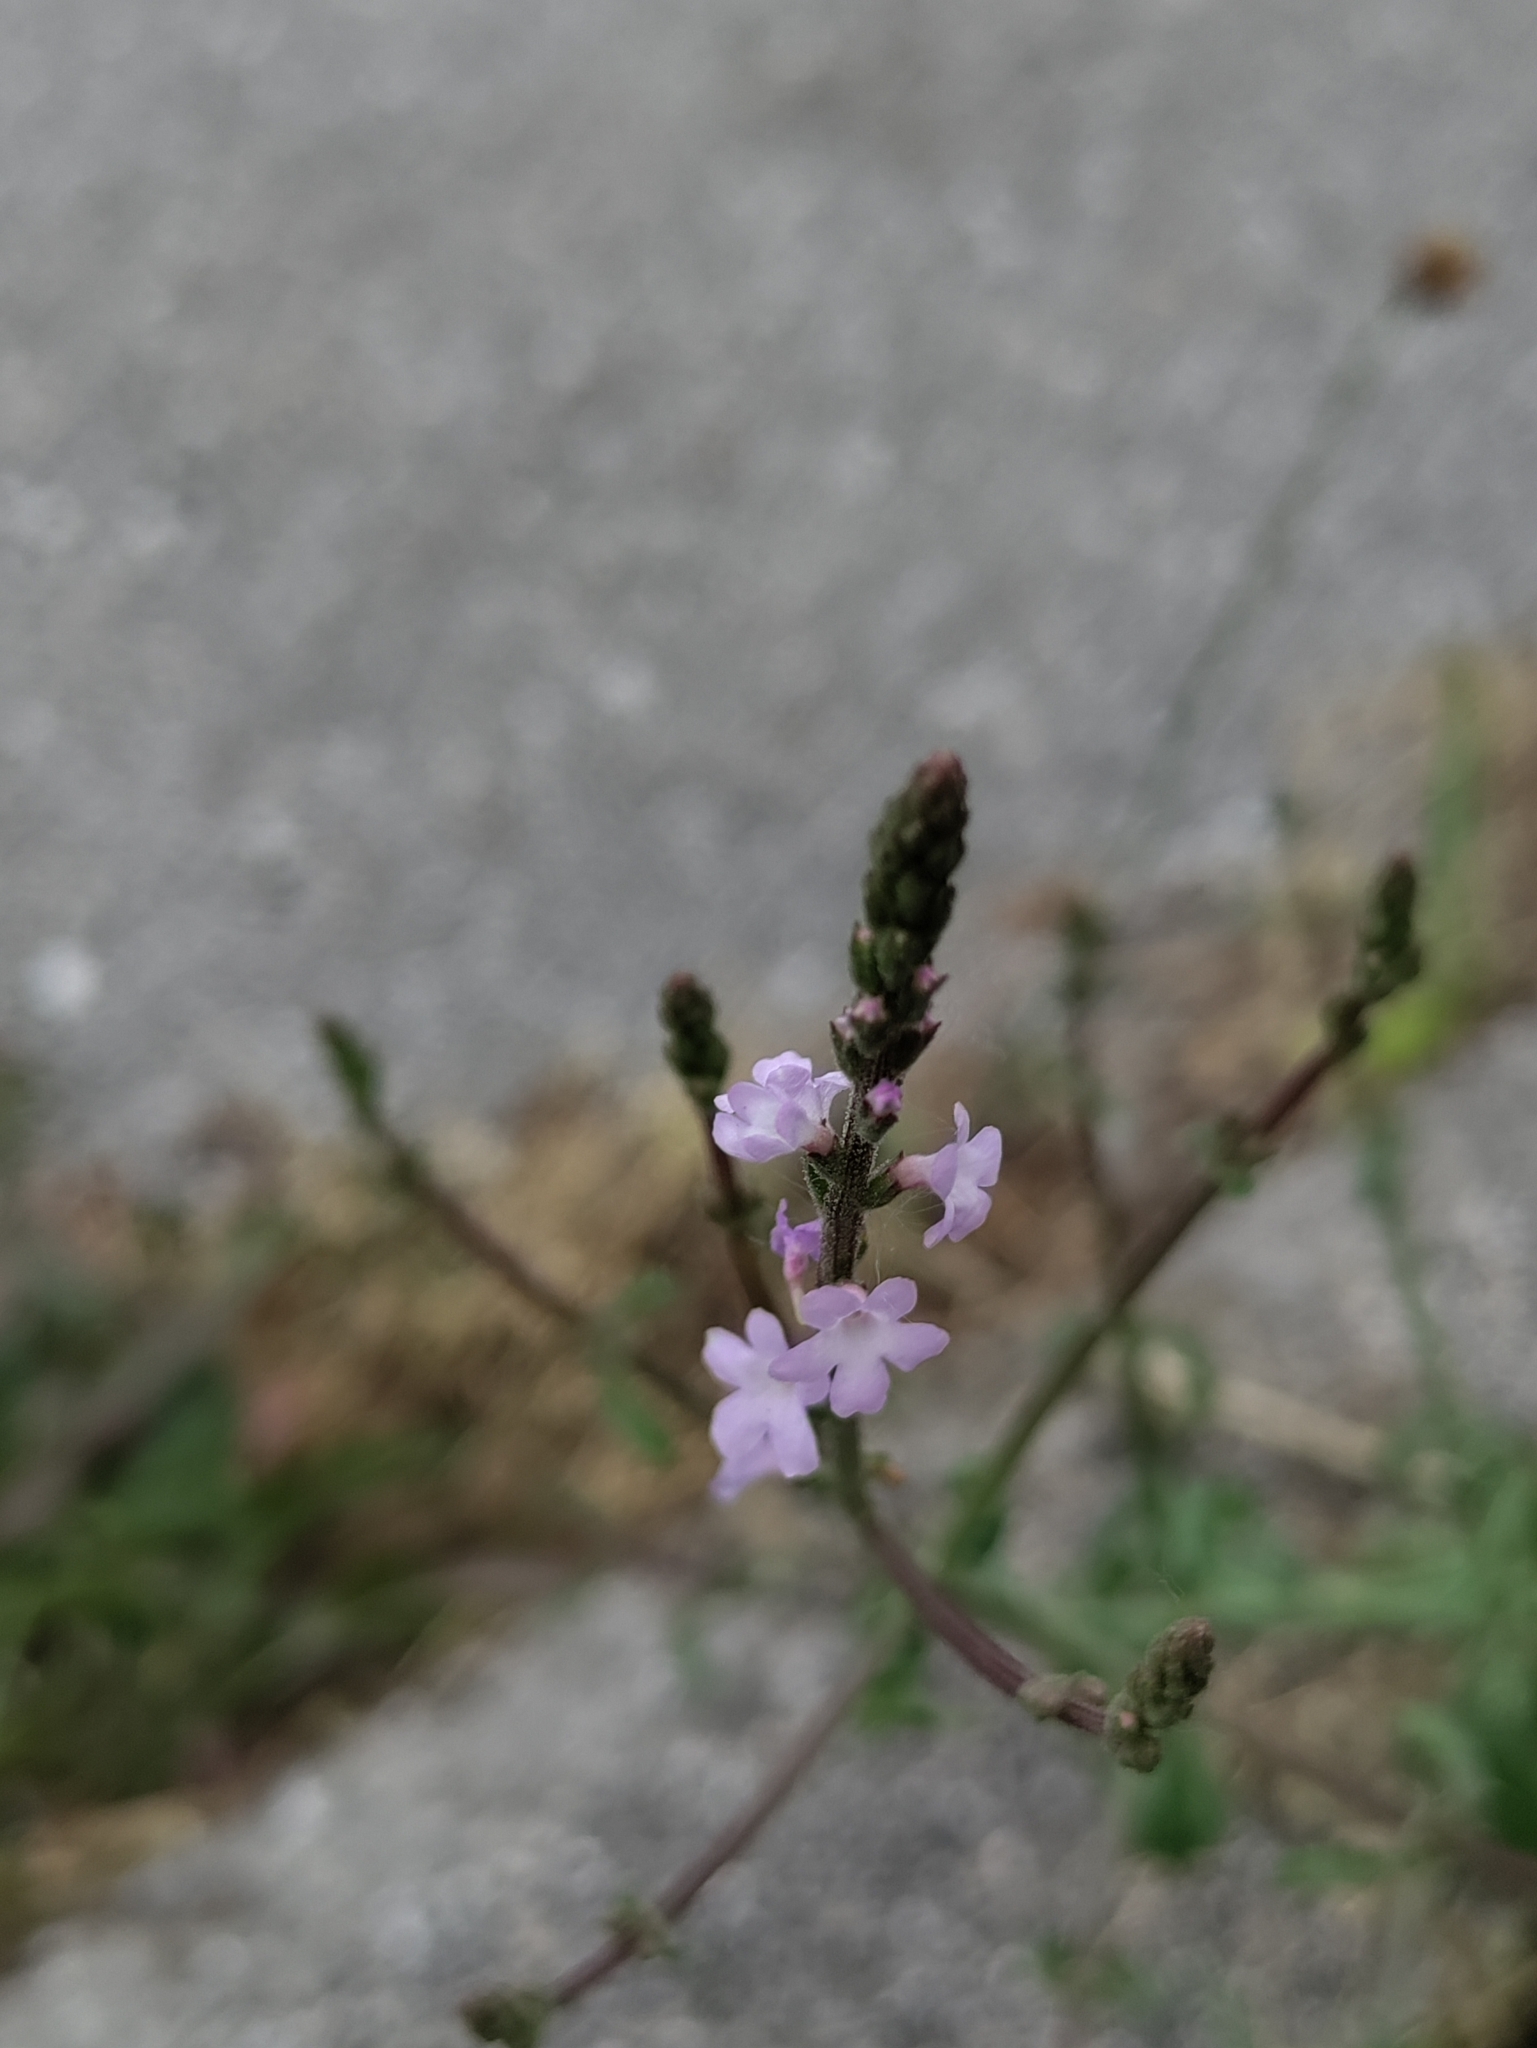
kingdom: Plantae
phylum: Tracheophyta
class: Magnoliopsida
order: Lamiales
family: Verbenaceae
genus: Verbena
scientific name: Verbena officinalis
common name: Vervain
